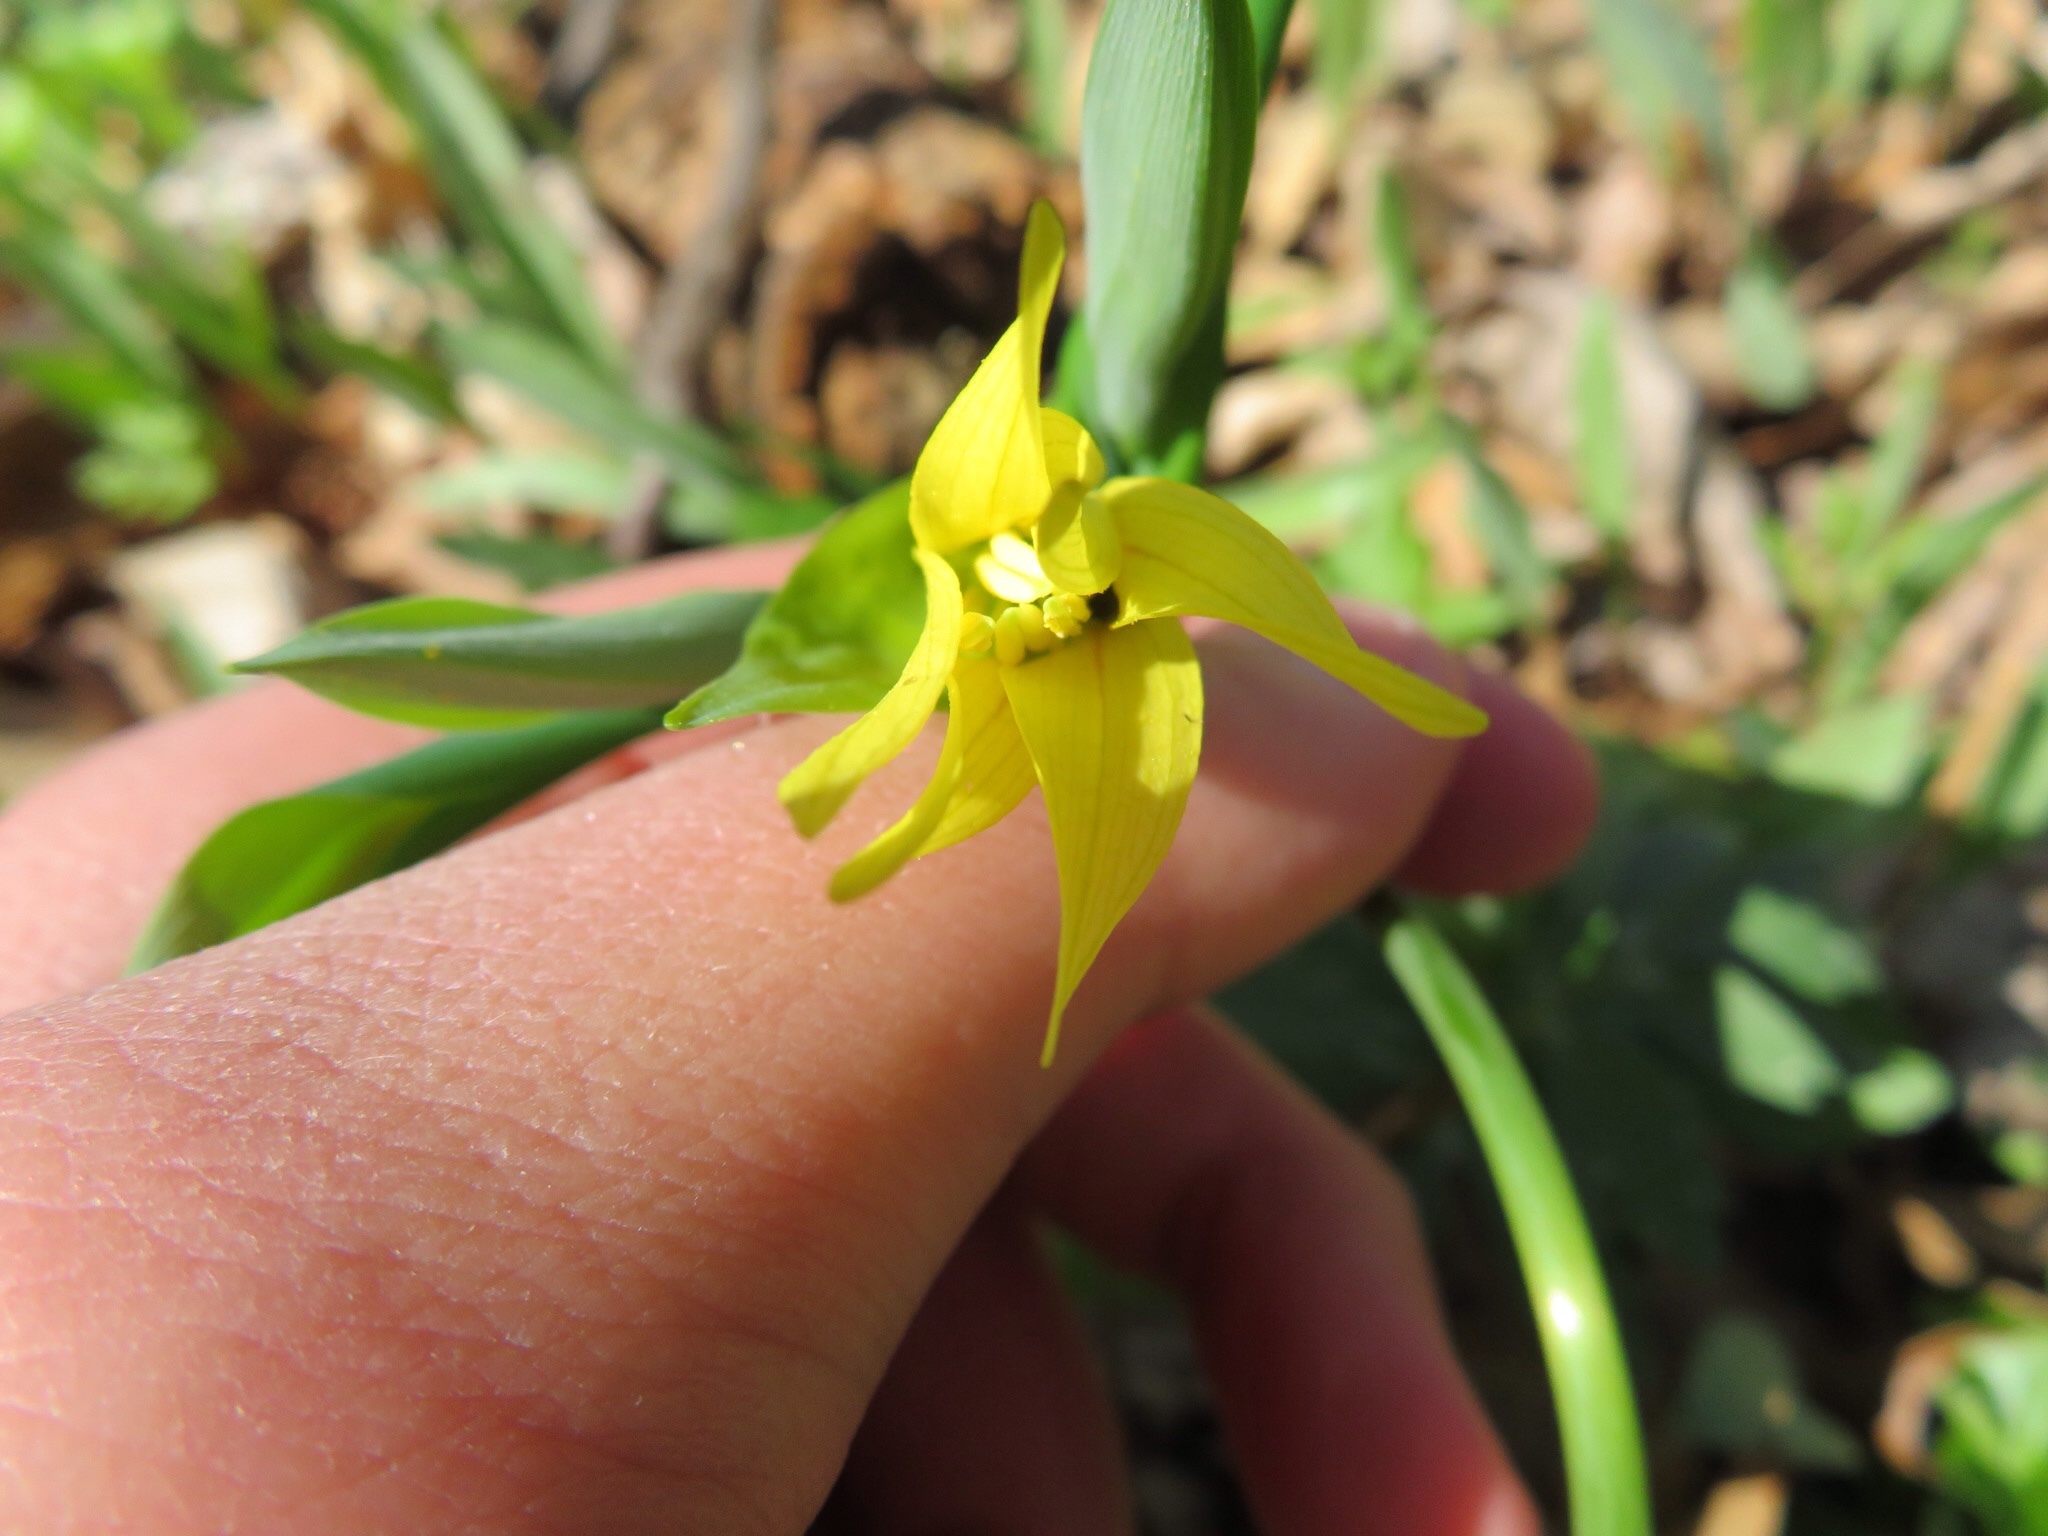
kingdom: Plantae
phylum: Tracheophyta
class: Liliopsida
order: Liliales
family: Colchicaceae
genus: Uvularia
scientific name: Uvularia grandiflora
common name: Bellwort
